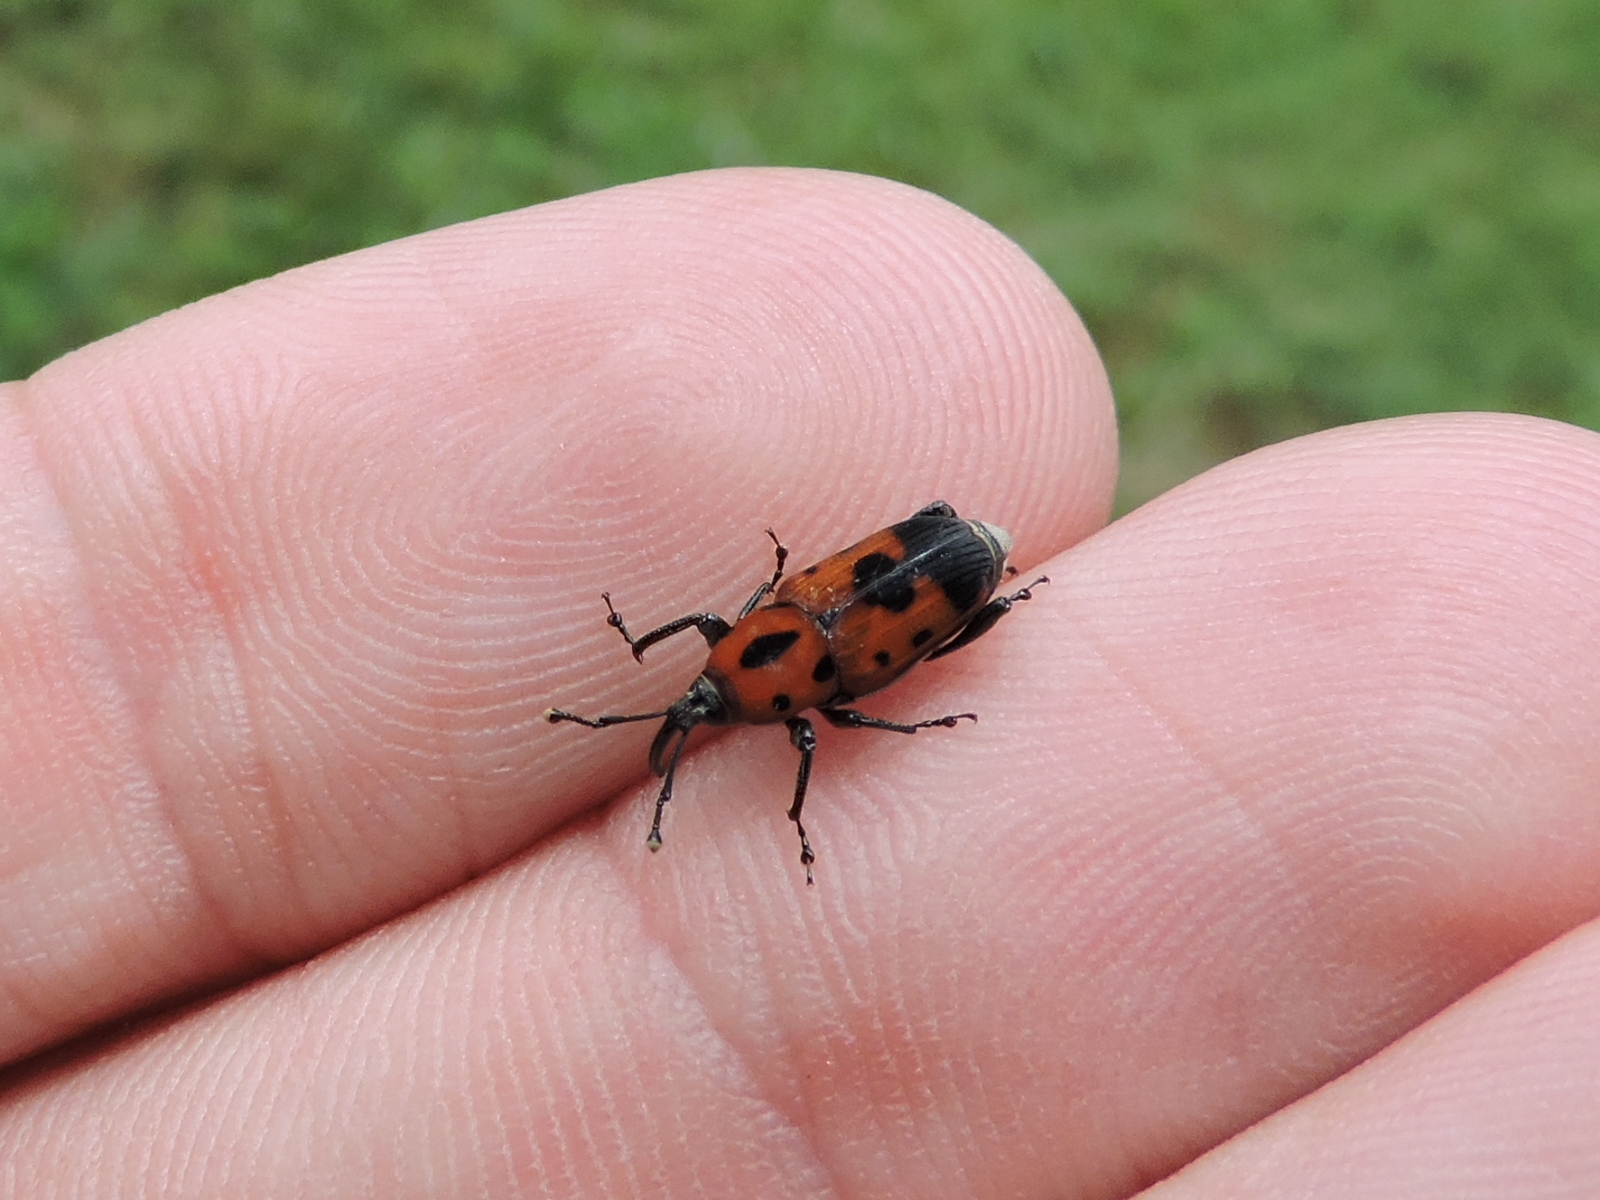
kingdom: Animalia
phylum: Arthropoda
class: Insecta
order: Coleoptera
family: Dryophthoridae
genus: Rhodobaenus
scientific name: Rhodobaenus quinquepunctatus
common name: Cocklebur weevil
